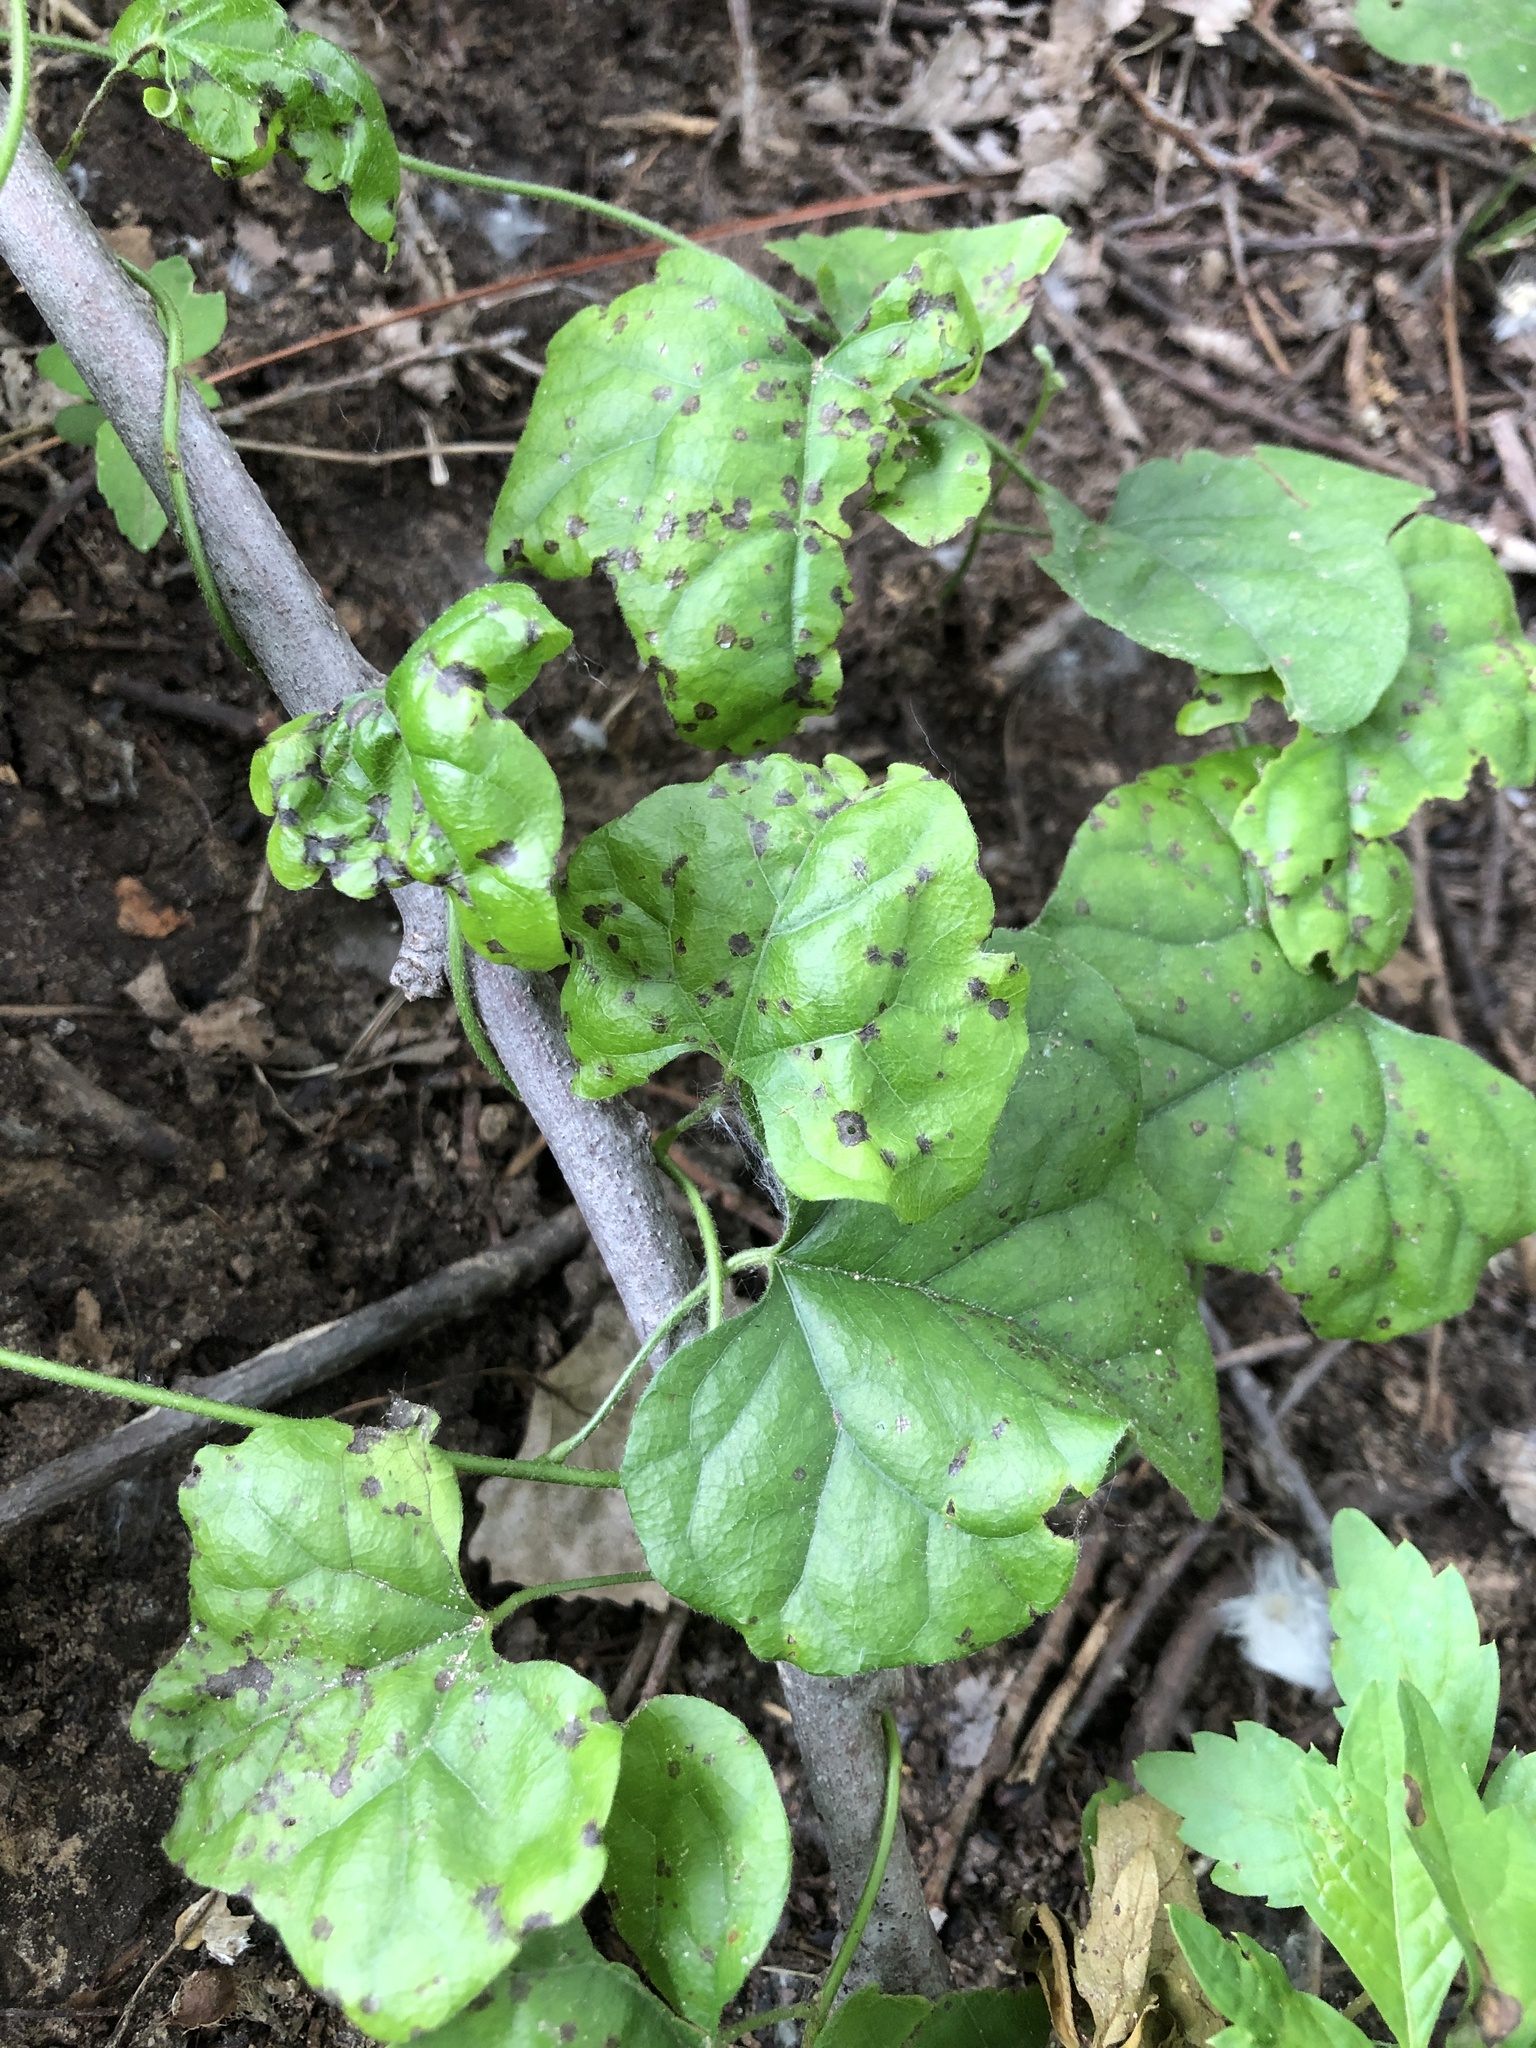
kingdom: Plantae
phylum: Tracheophyta
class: Magnoliopsida
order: Ranunculales
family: Menispermaceae
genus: Cocculus
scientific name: Cocculus carolinus
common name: Carolina moonseed
